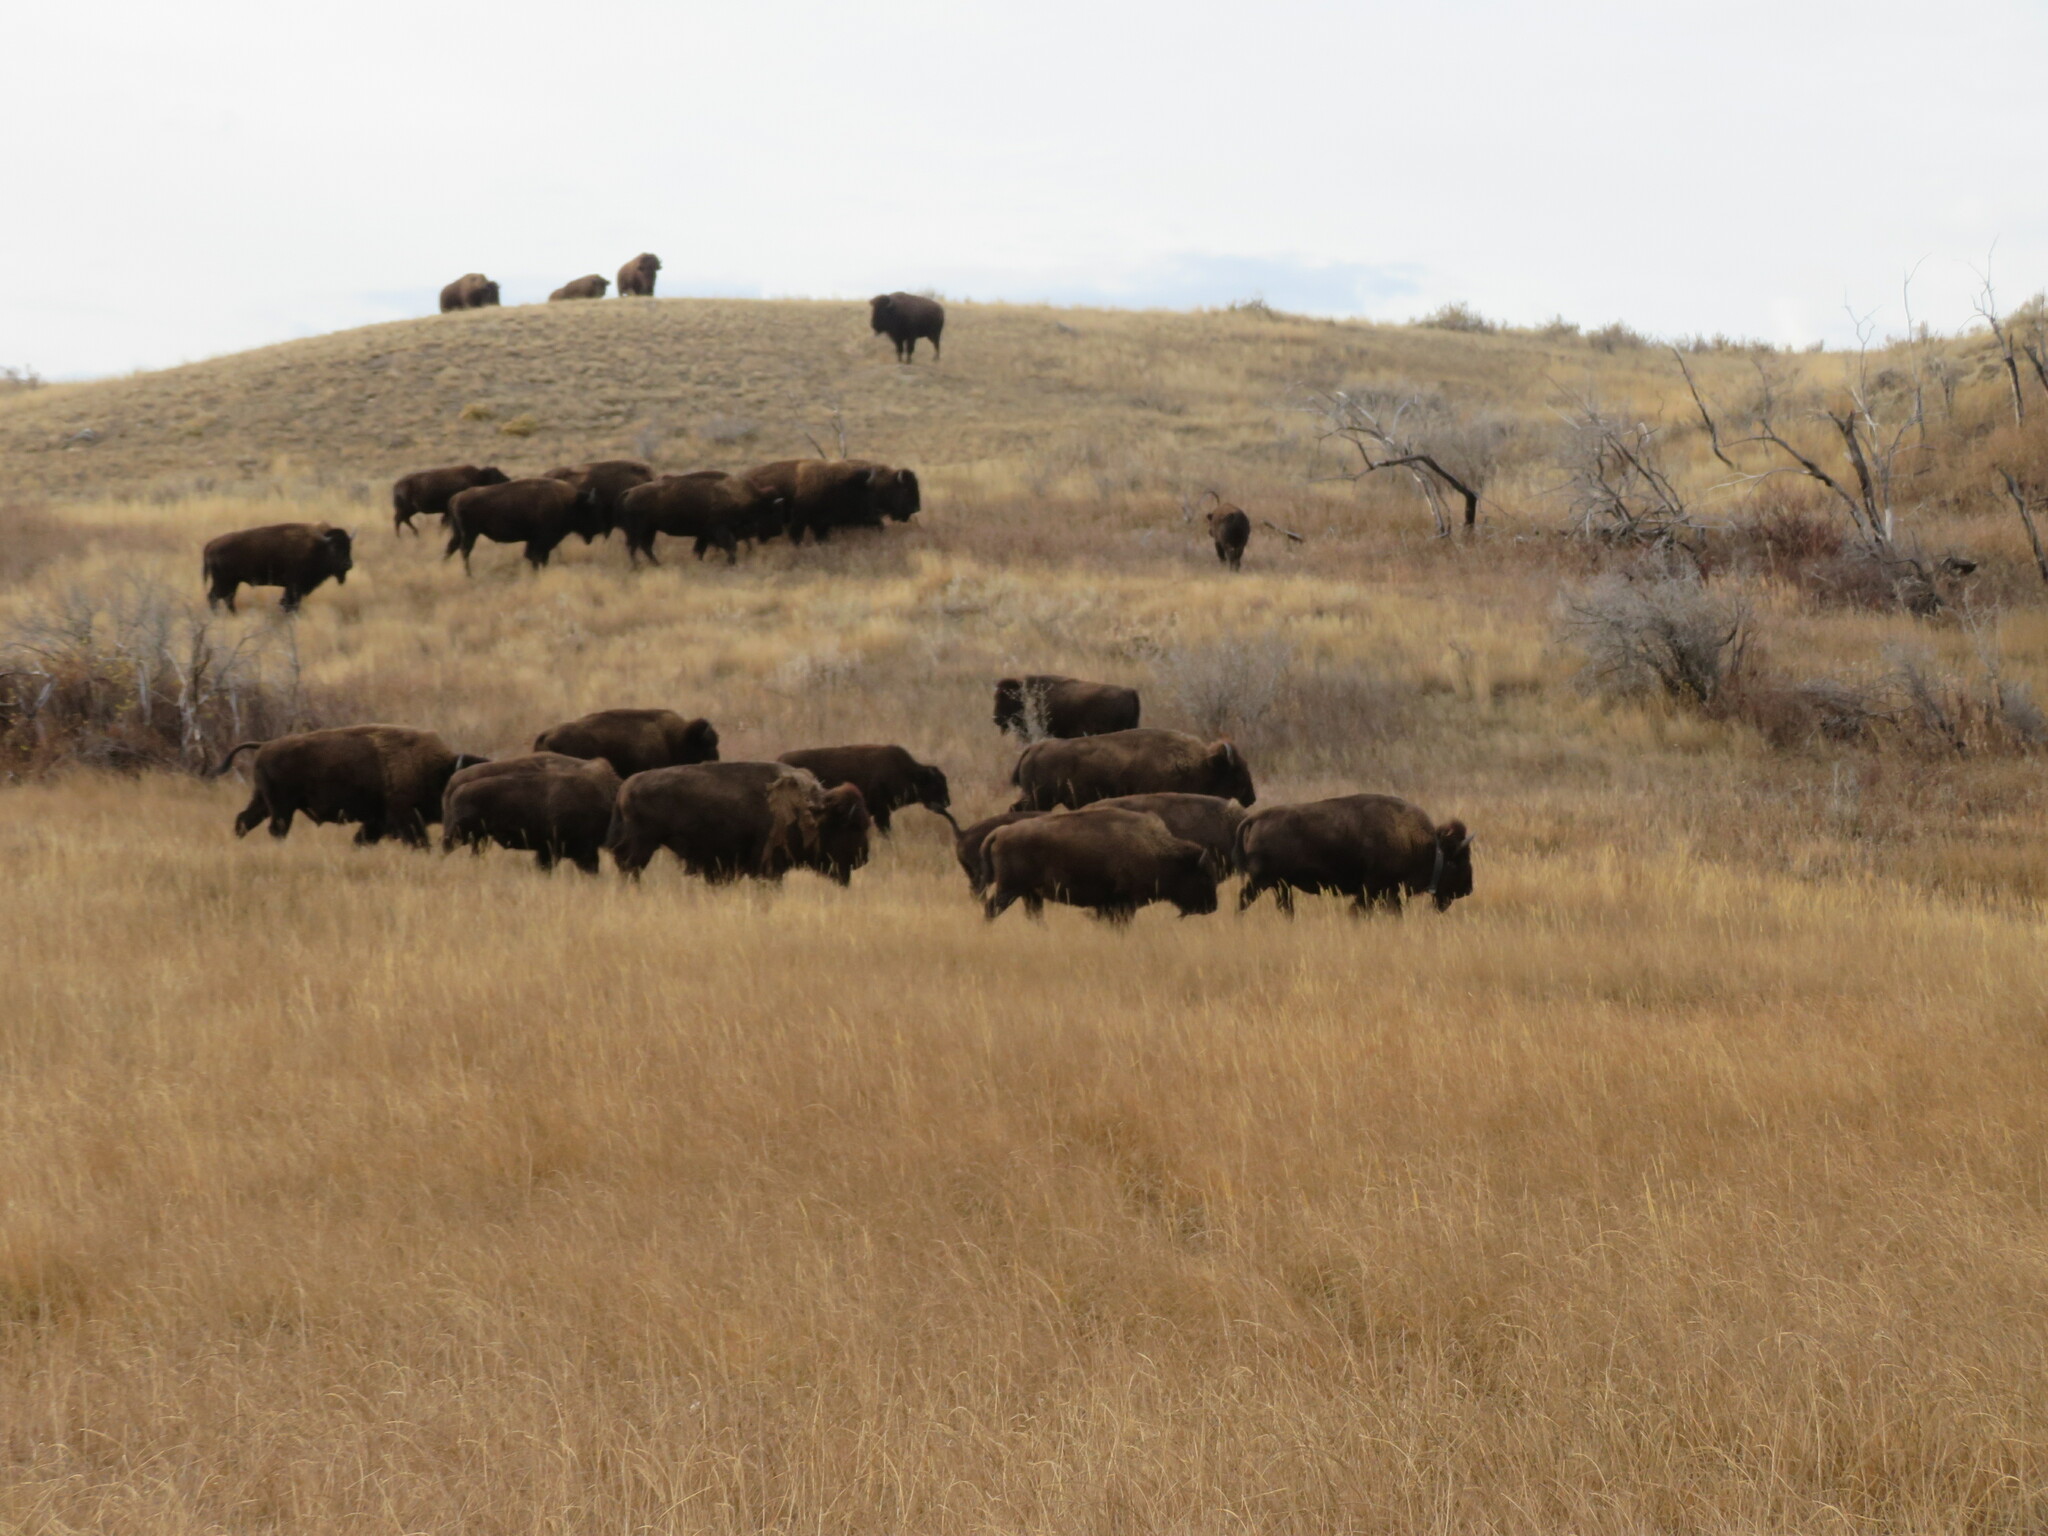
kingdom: Animalia
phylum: Chordata
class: Mammalia
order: Artiodactyla
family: Bovidae
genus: Bison
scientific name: Bison bison
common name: American bison
